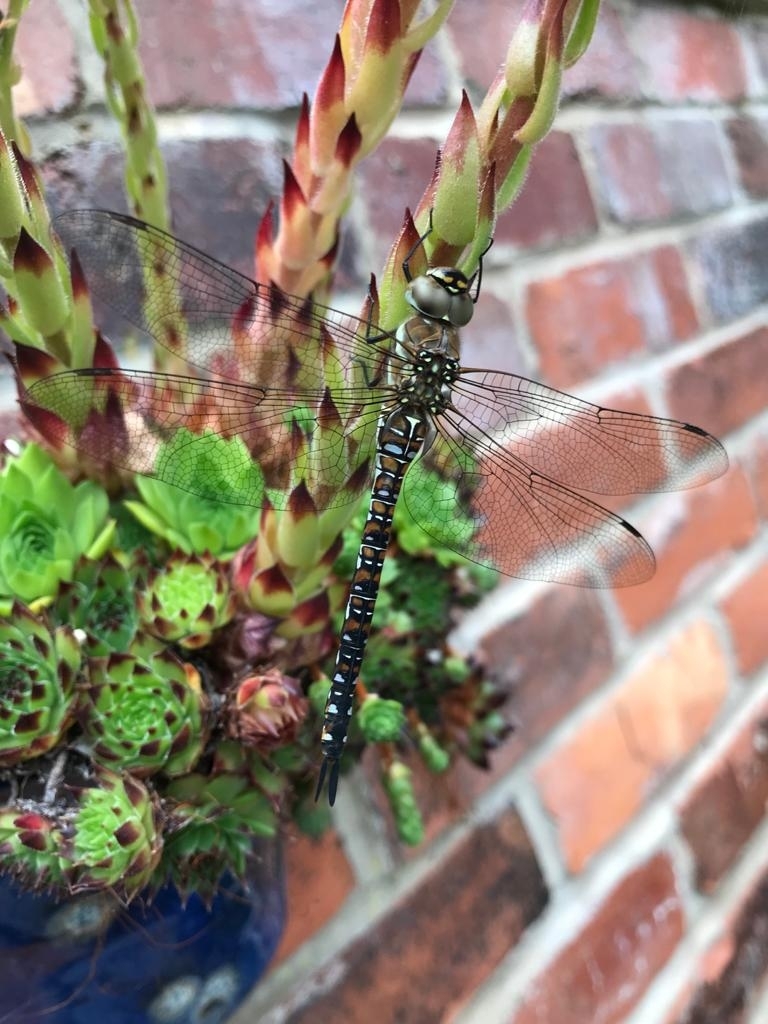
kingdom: Animalia
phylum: Arthropoda
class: Insecta
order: Odonata
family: Aeshnidae
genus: Aeshna
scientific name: Aeshna mixta
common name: Migrant hawker
